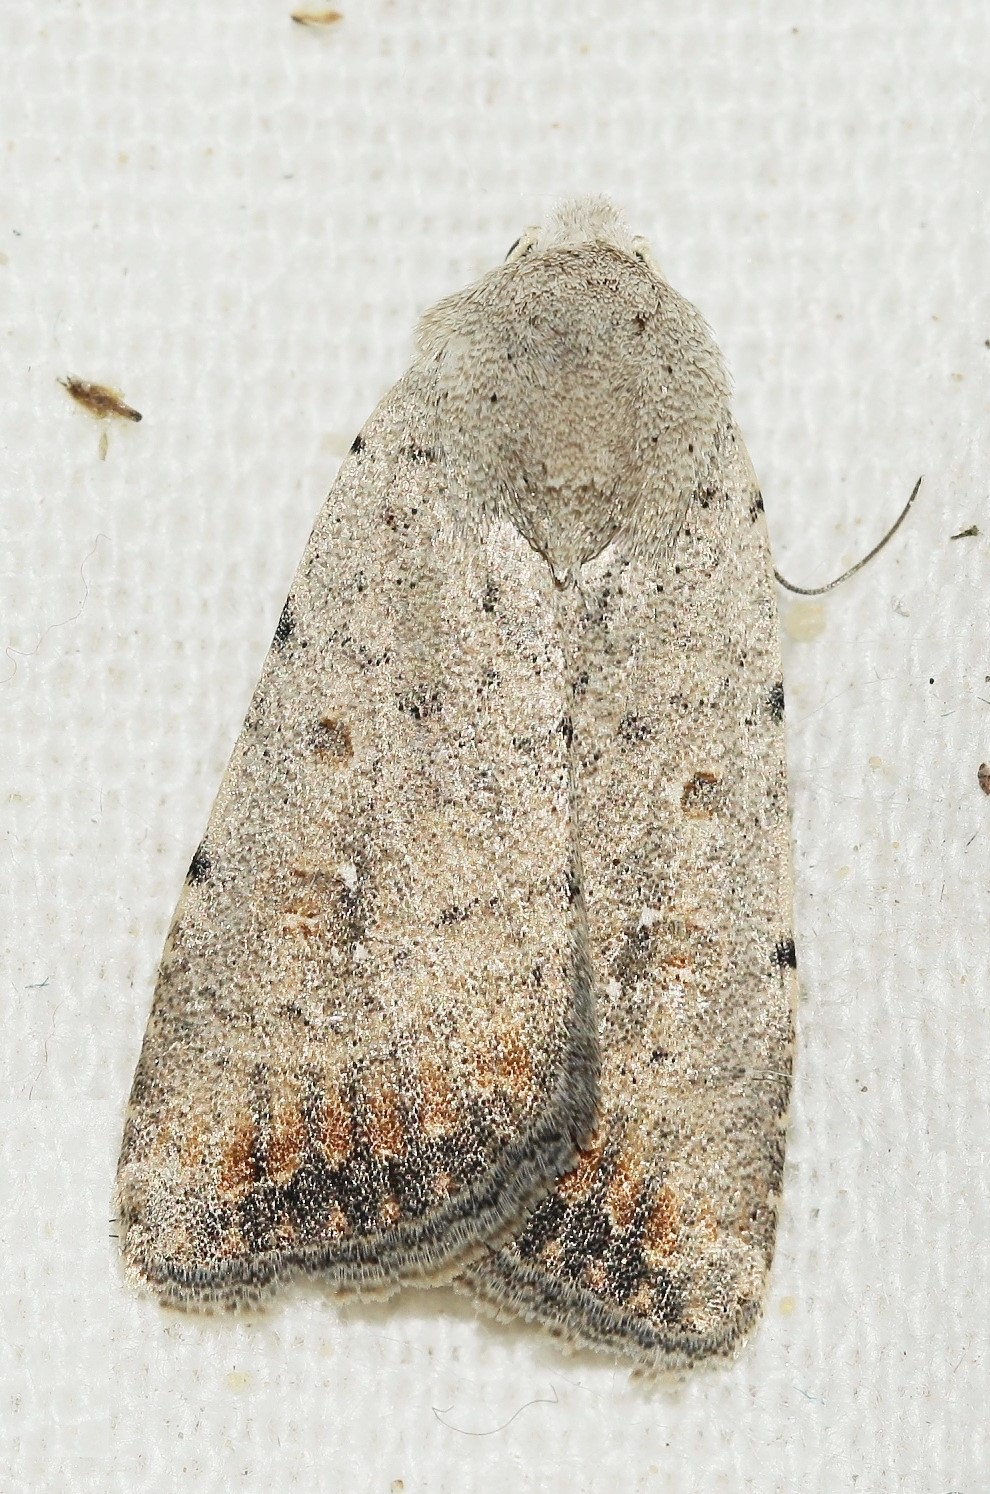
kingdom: Animalia
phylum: Arthropoda
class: Insecta
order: Lepidoptera
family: Noctuidae
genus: Caradrina
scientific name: Caradrina albina
